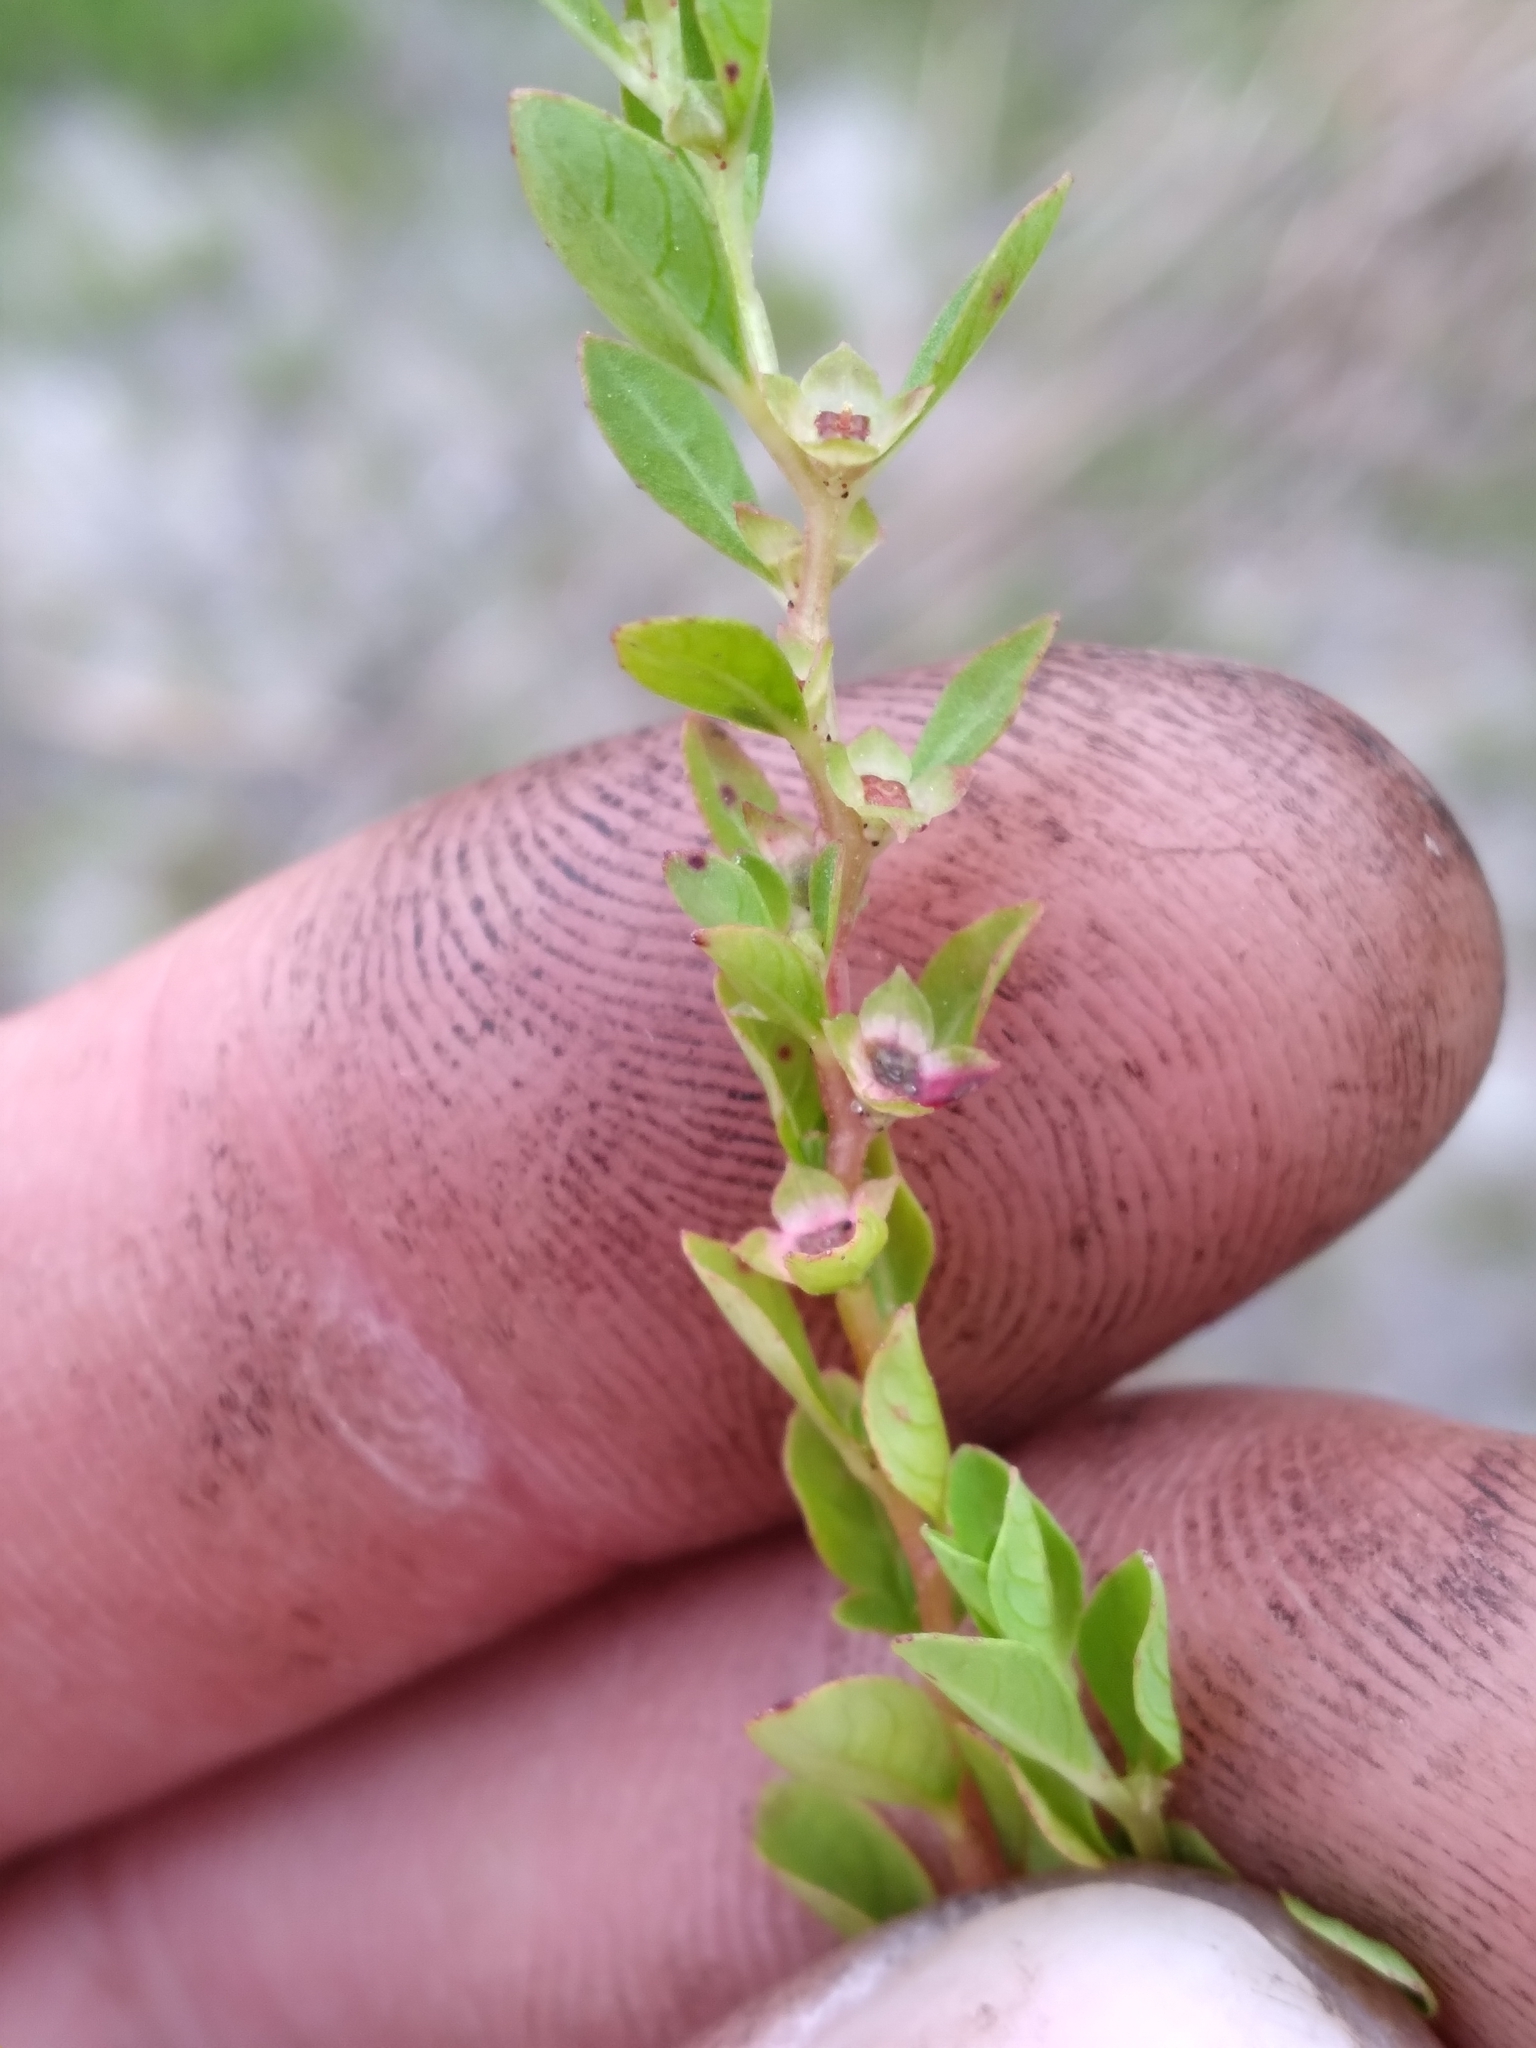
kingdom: Plantae
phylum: Tracheophyta
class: Magnoliopsida
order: Myrtales
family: Onagraceae
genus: Ludwigia
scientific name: Ludwigia microcarpa
